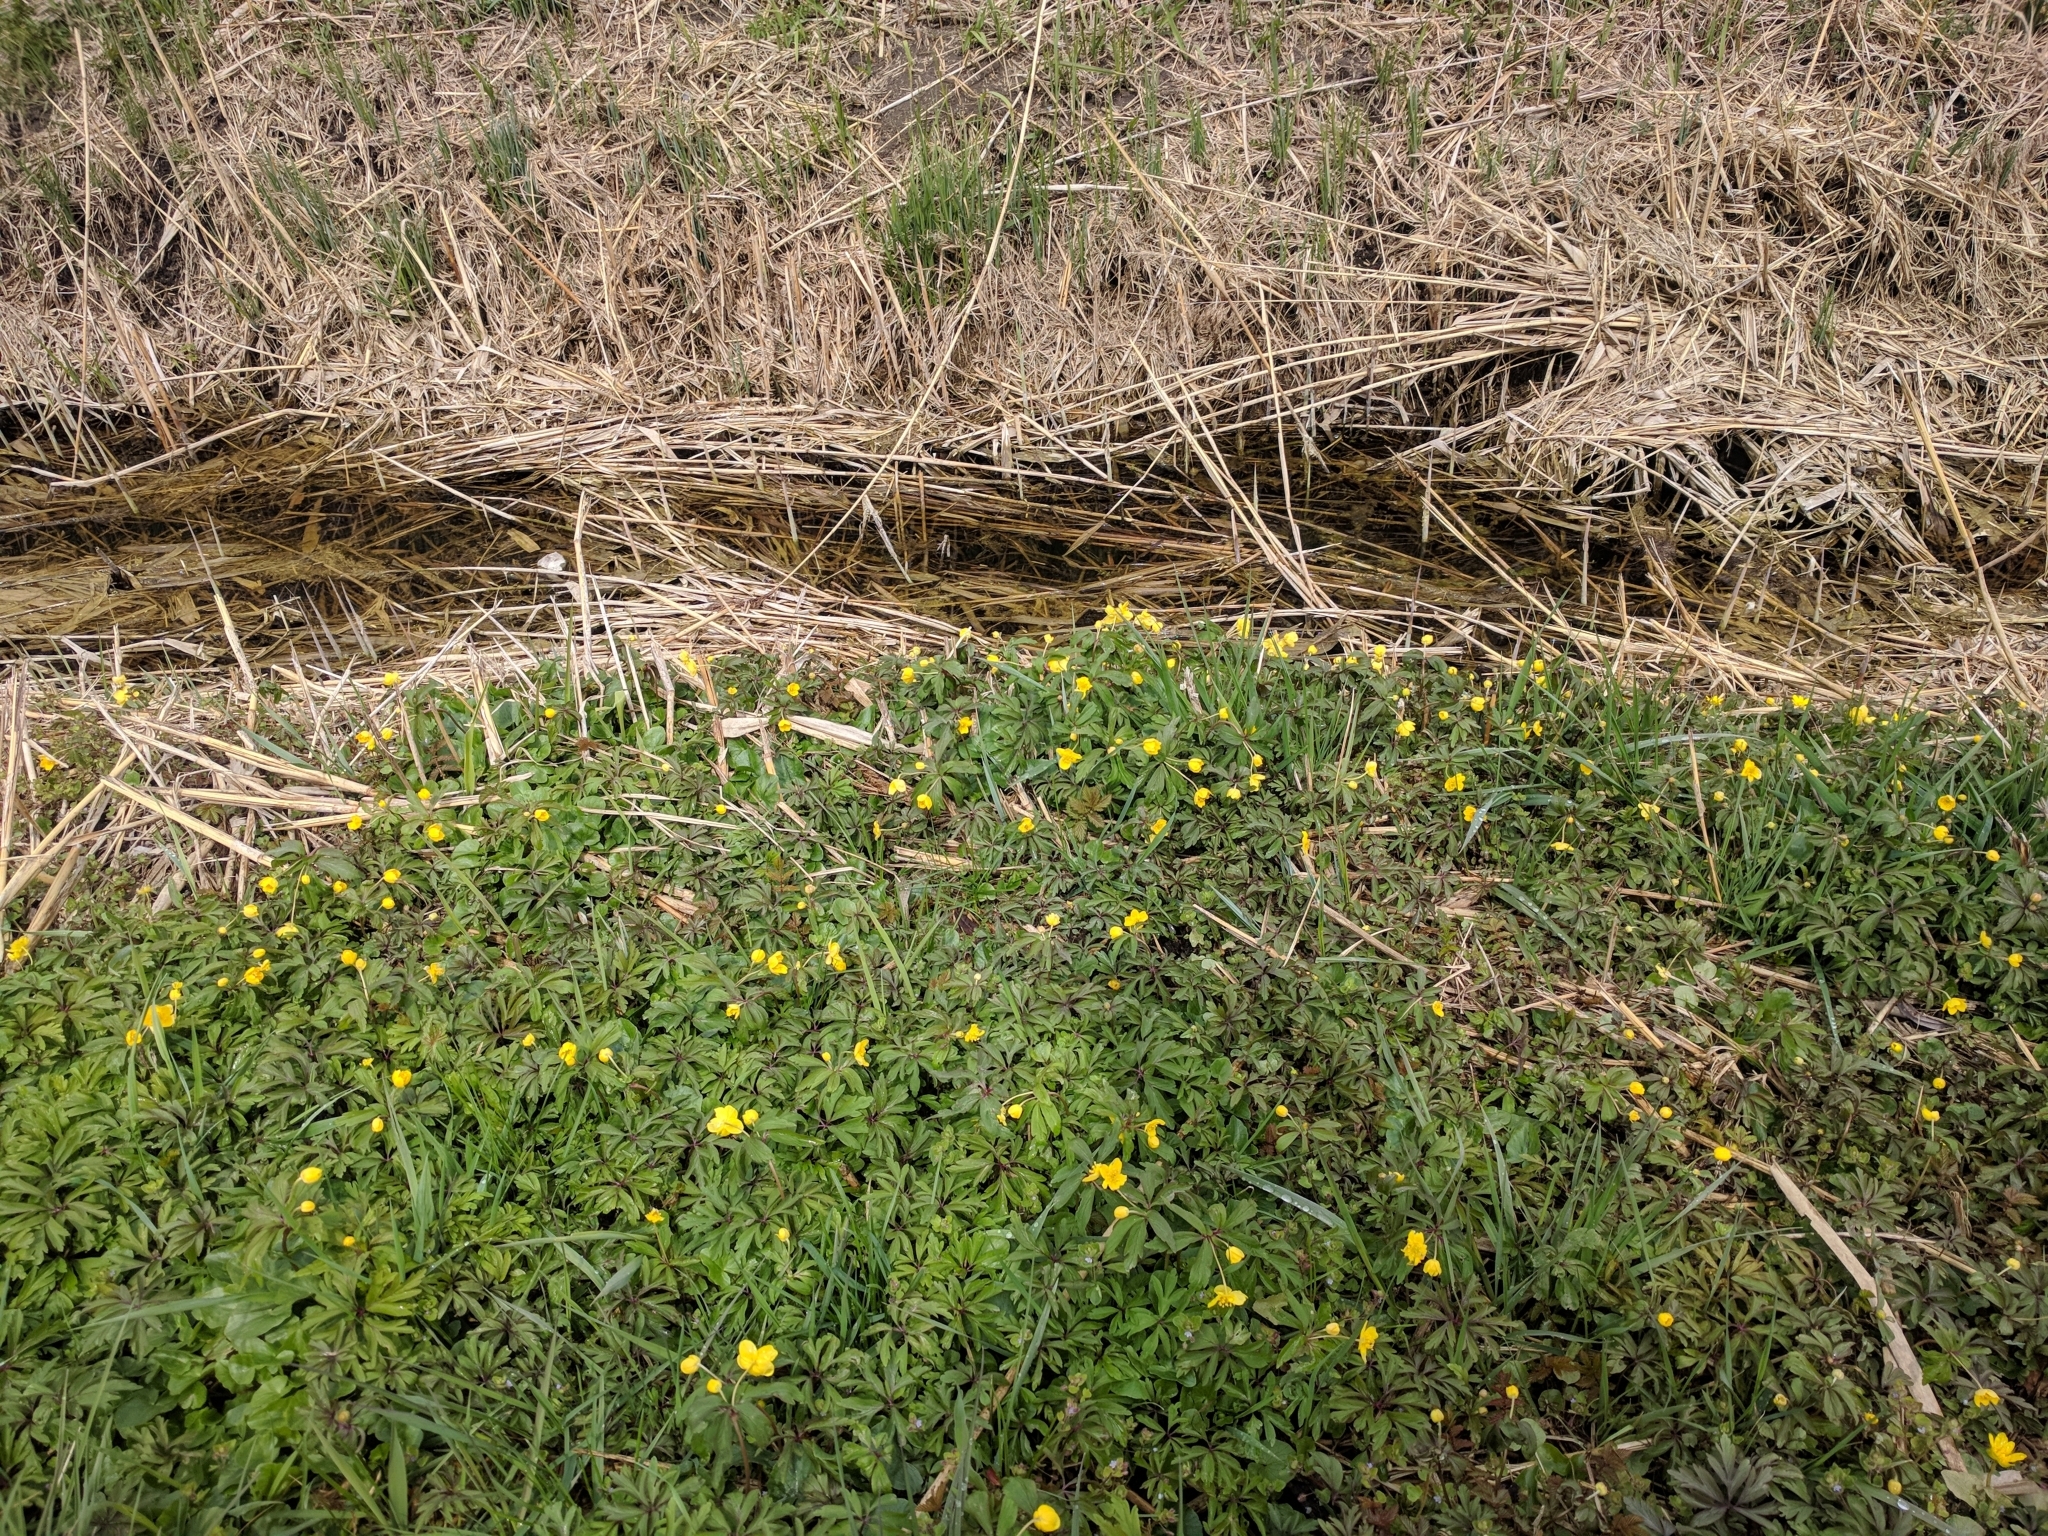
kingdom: Plantae
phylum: Tracheophyta
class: Magnoliopsida
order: Ranunculales
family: Ranunculaceae
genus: Anemone
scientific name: Anemone ranunculoides
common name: Yellow anemone
